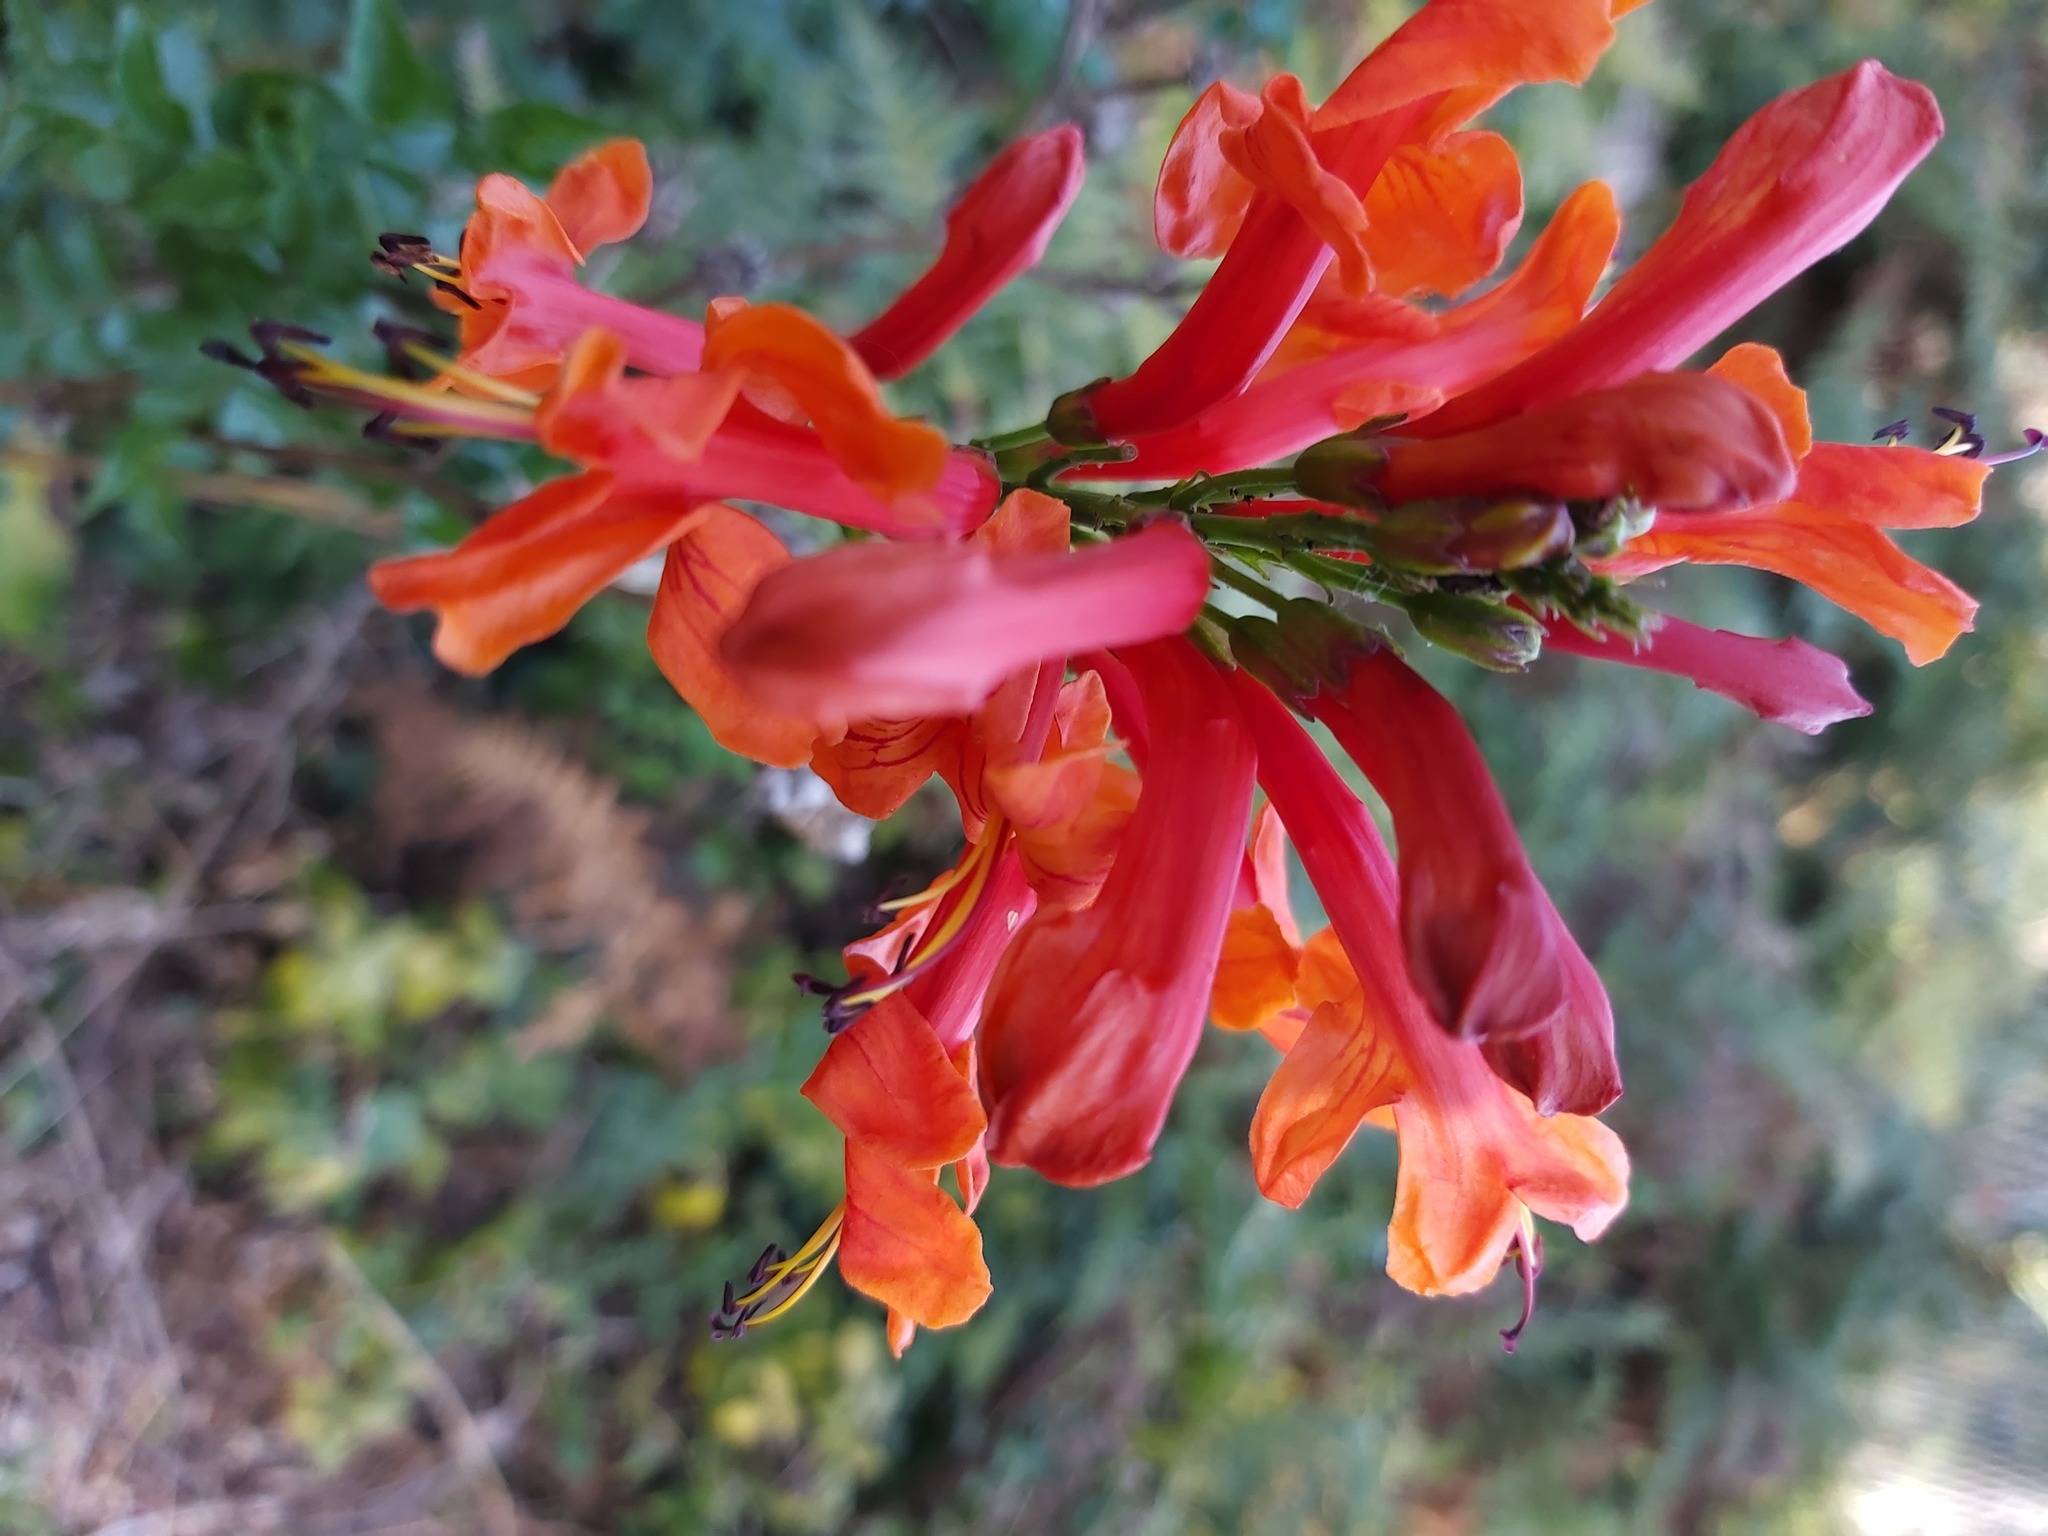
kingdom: Plantae
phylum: Tracheophyta
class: Magnoliopsida
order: Lamiales
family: Bignoniaceae
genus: Tecomaria
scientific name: Tecomaria capensis
